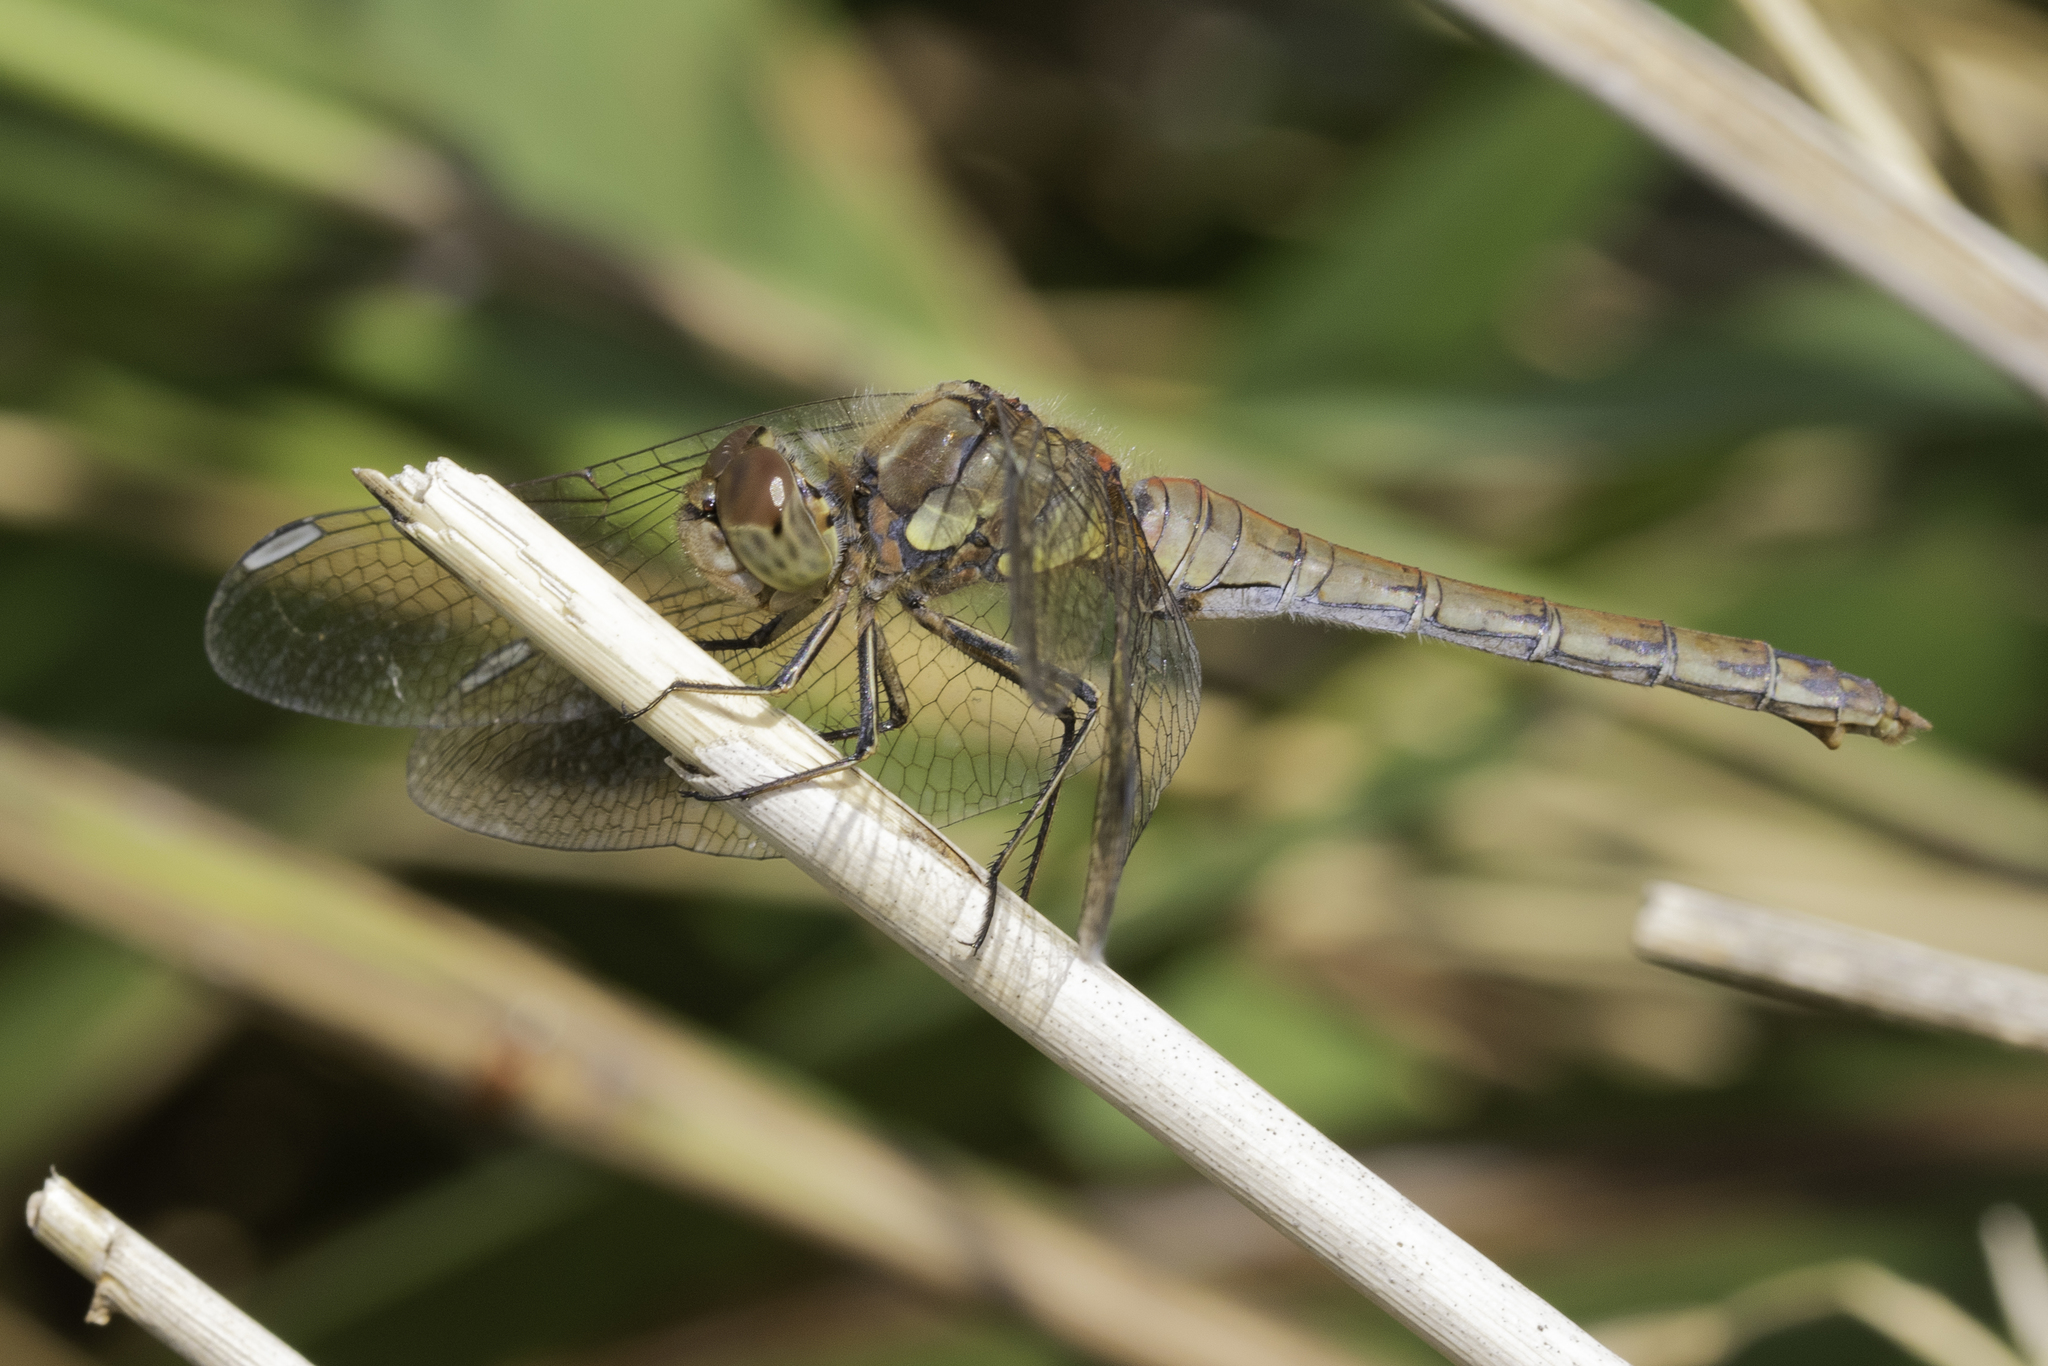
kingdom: Animalia
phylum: Arthropoda
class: Insecta
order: Odonata
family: Libellulidae
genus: Sympetrum
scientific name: Sympetrum striolatum
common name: Common darter
